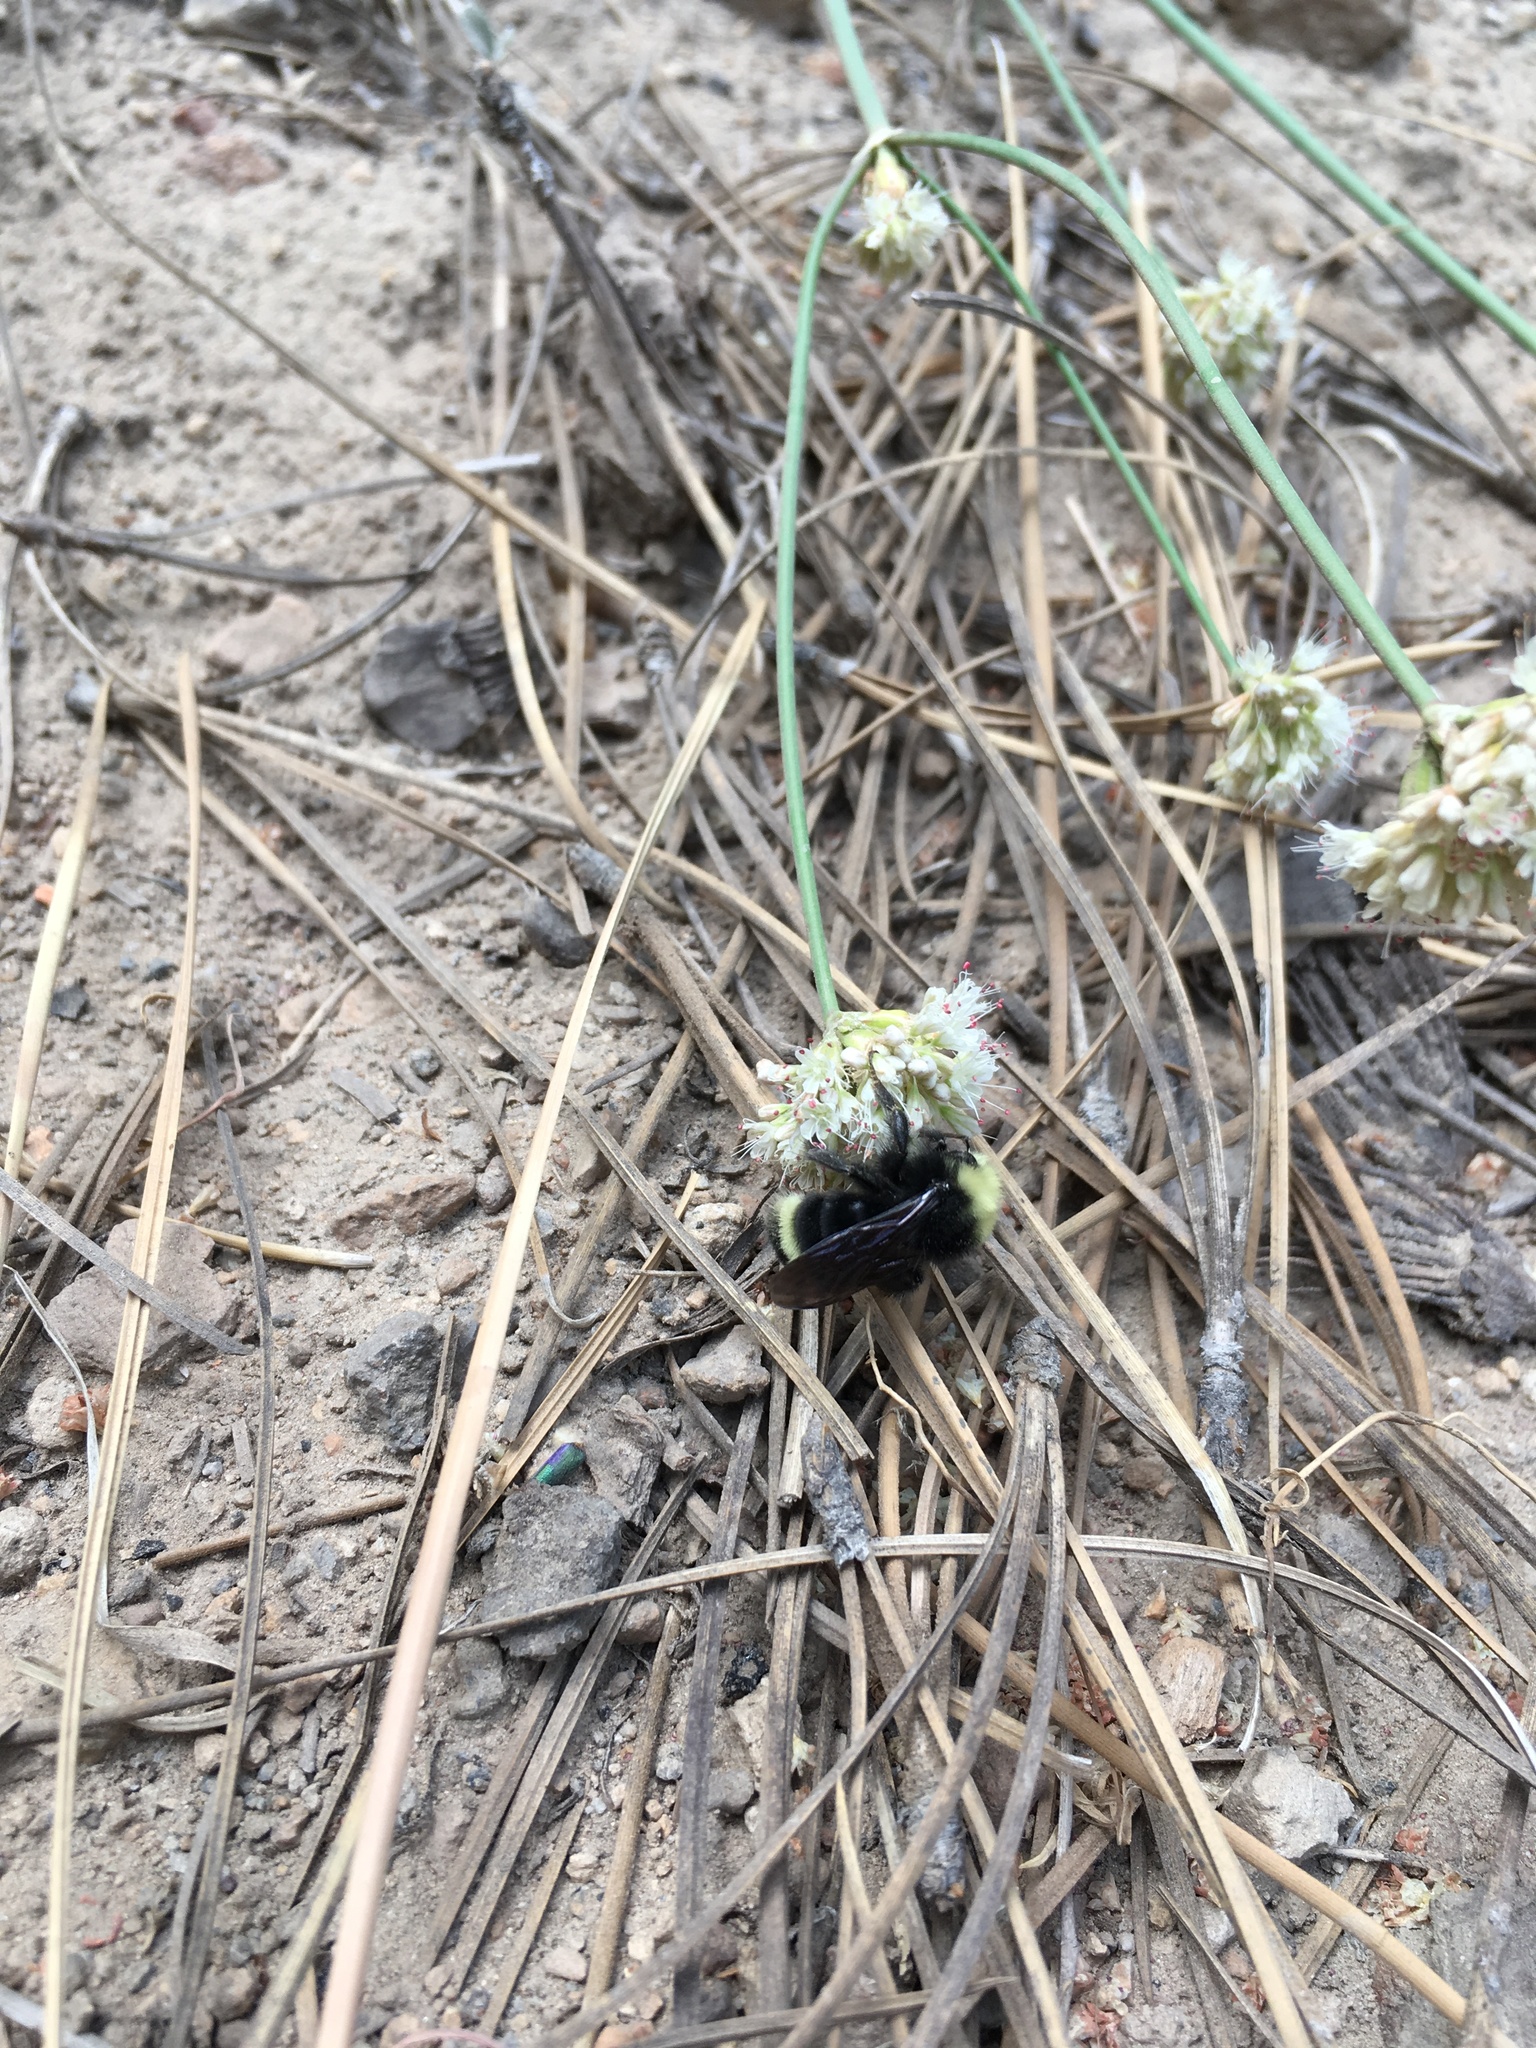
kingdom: Animalia
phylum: Arthropoda
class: Insecta
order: Hymenoptera
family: Apidae
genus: Bombus
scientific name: Bombus vosnesenskii
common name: Vosnesensky bumble bee
